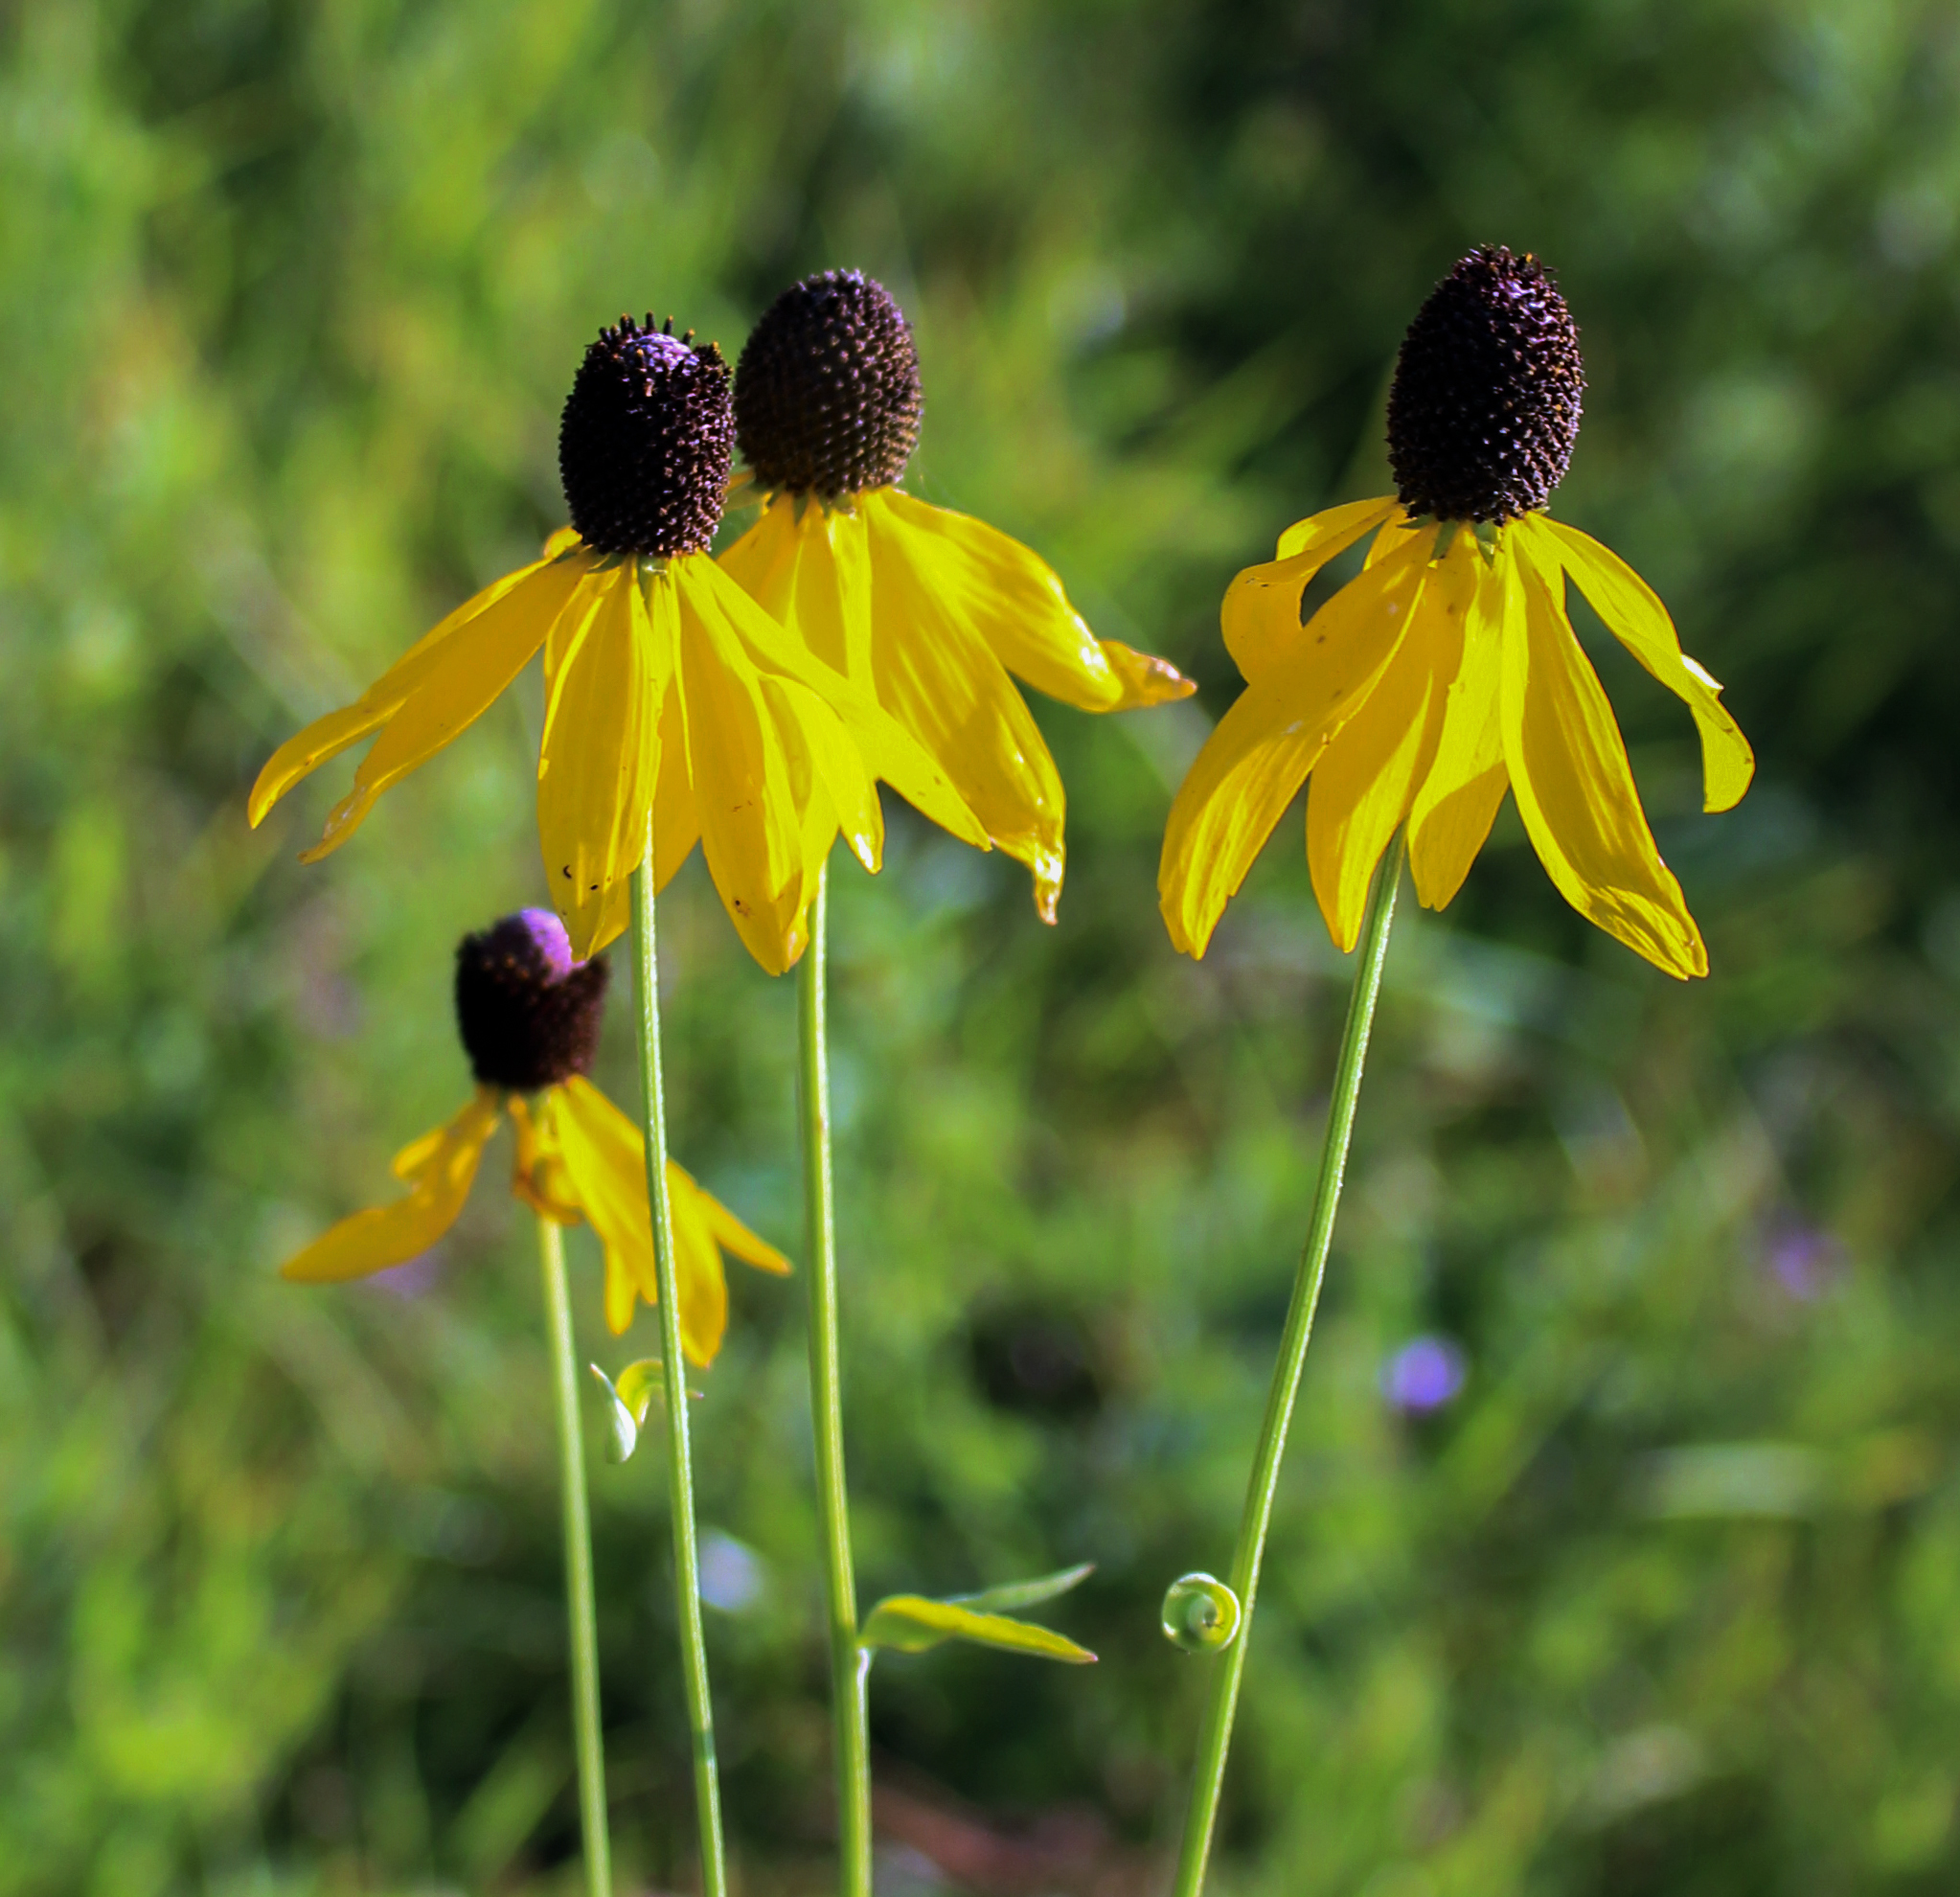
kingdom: Plantae
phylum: Tracheophyta
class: Magnoliopsida
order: Asterales
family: Asteraceae
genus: Ratibida
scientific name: Ratibida pinnata
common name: Drooping prairie-coneflower
